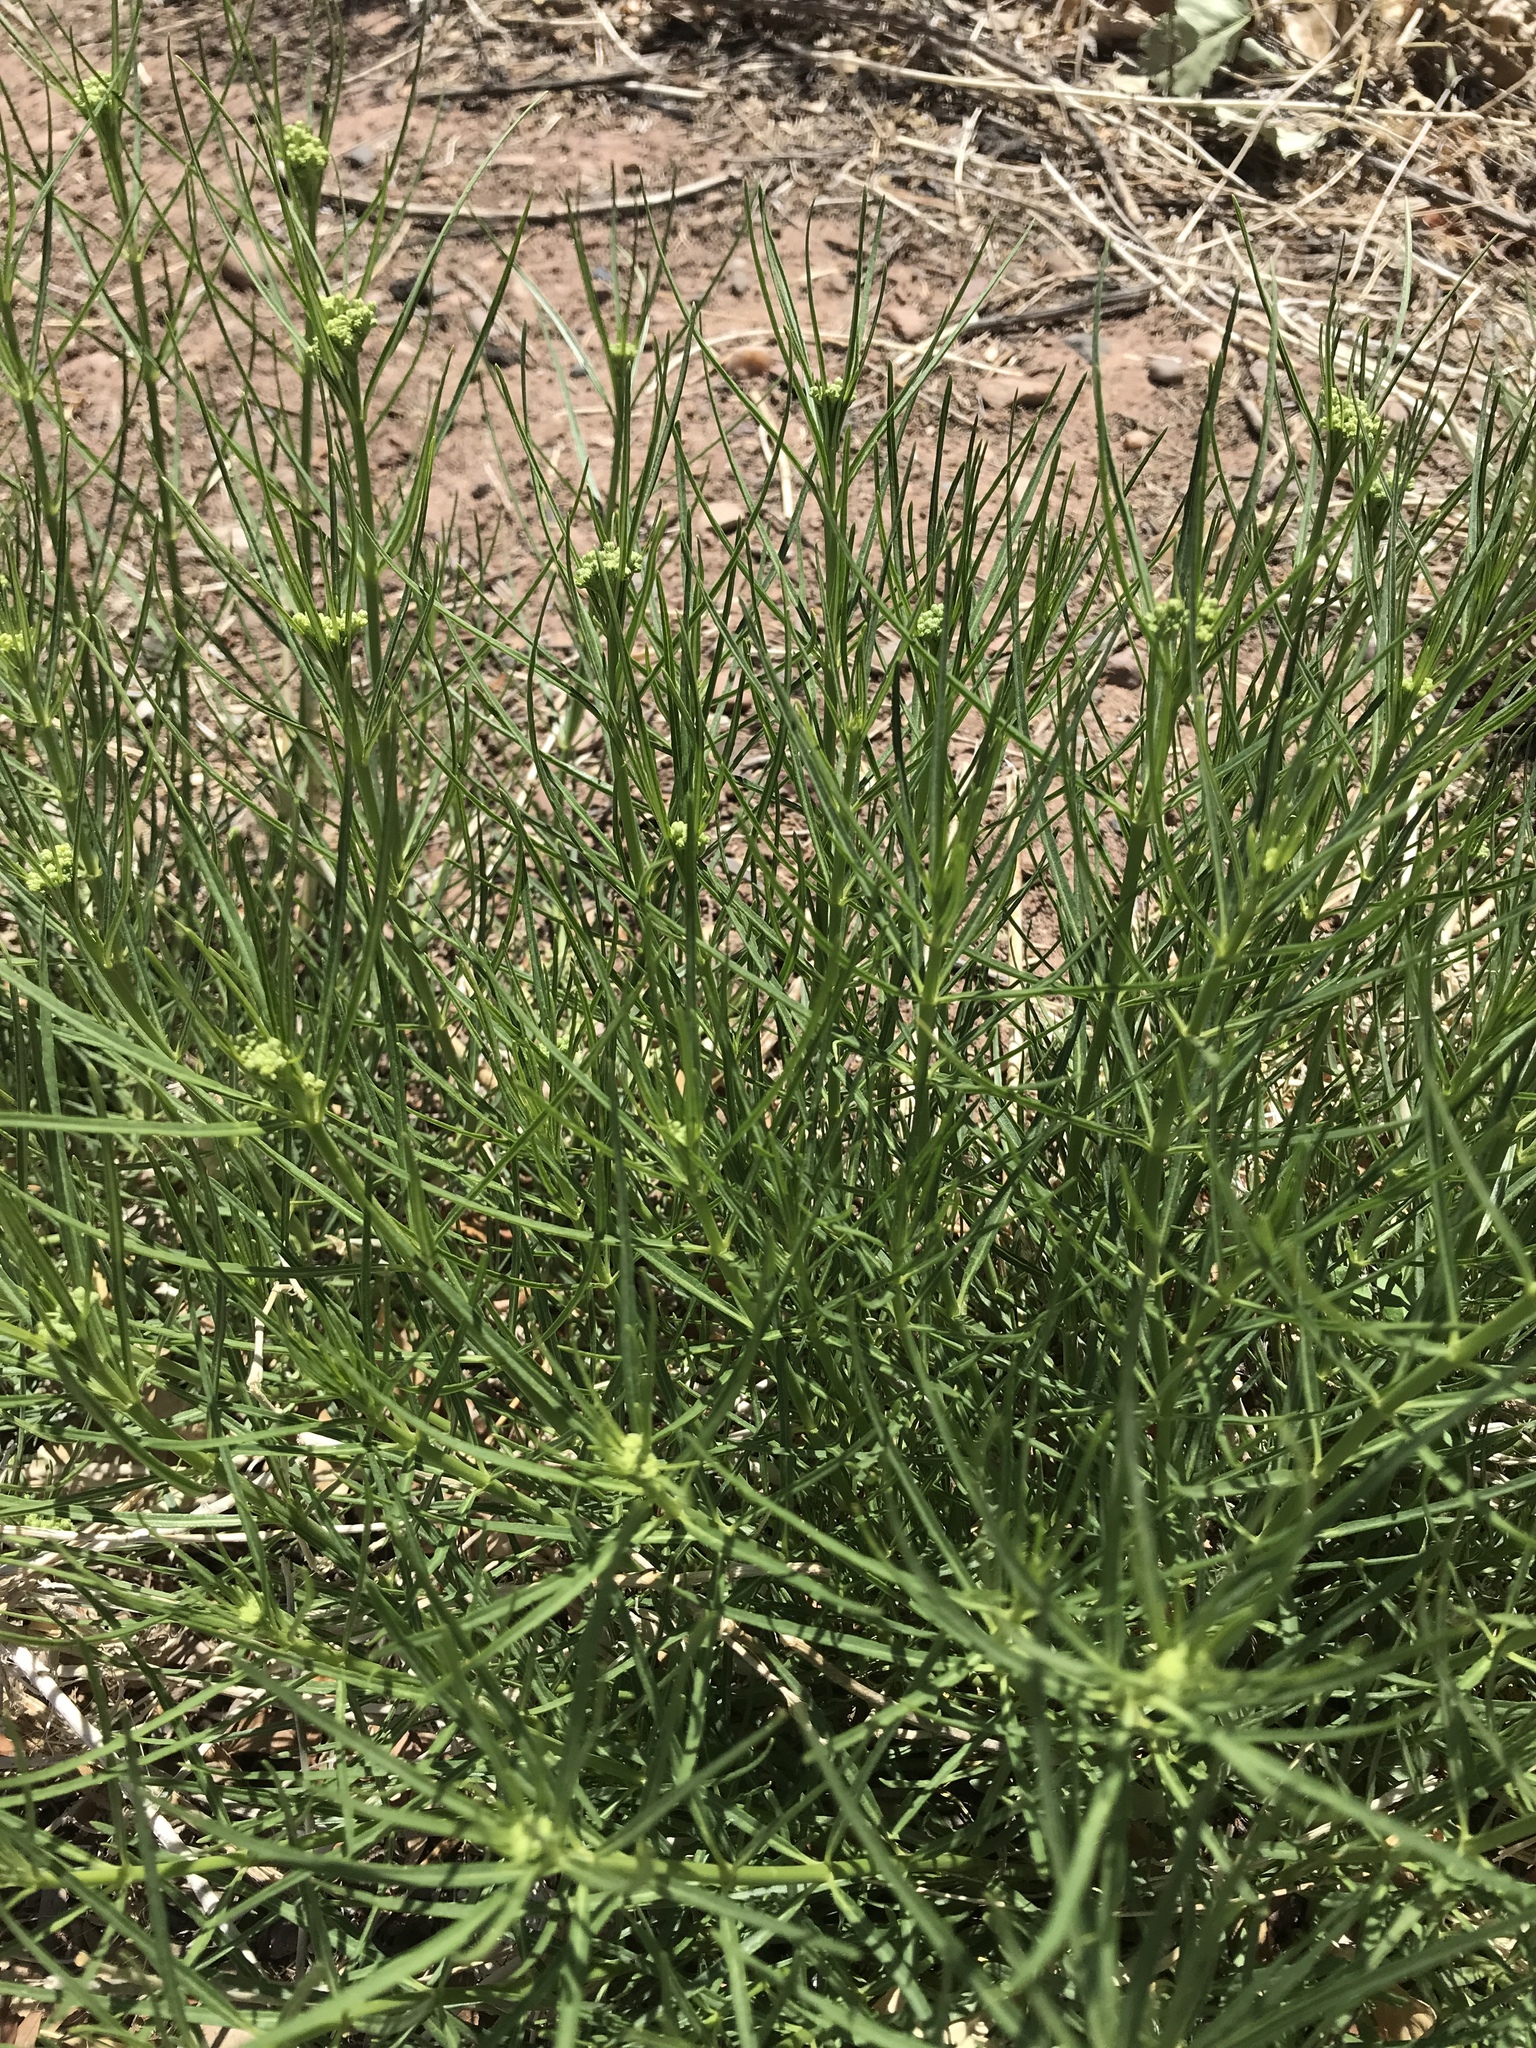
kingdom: Plantae
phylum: Tracheophyta
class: Magnoliopsida
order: Gentianales
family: Apocynaceae
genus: Asclepias
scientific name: Asclepias subverticillata
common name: Horsetail milkweed
